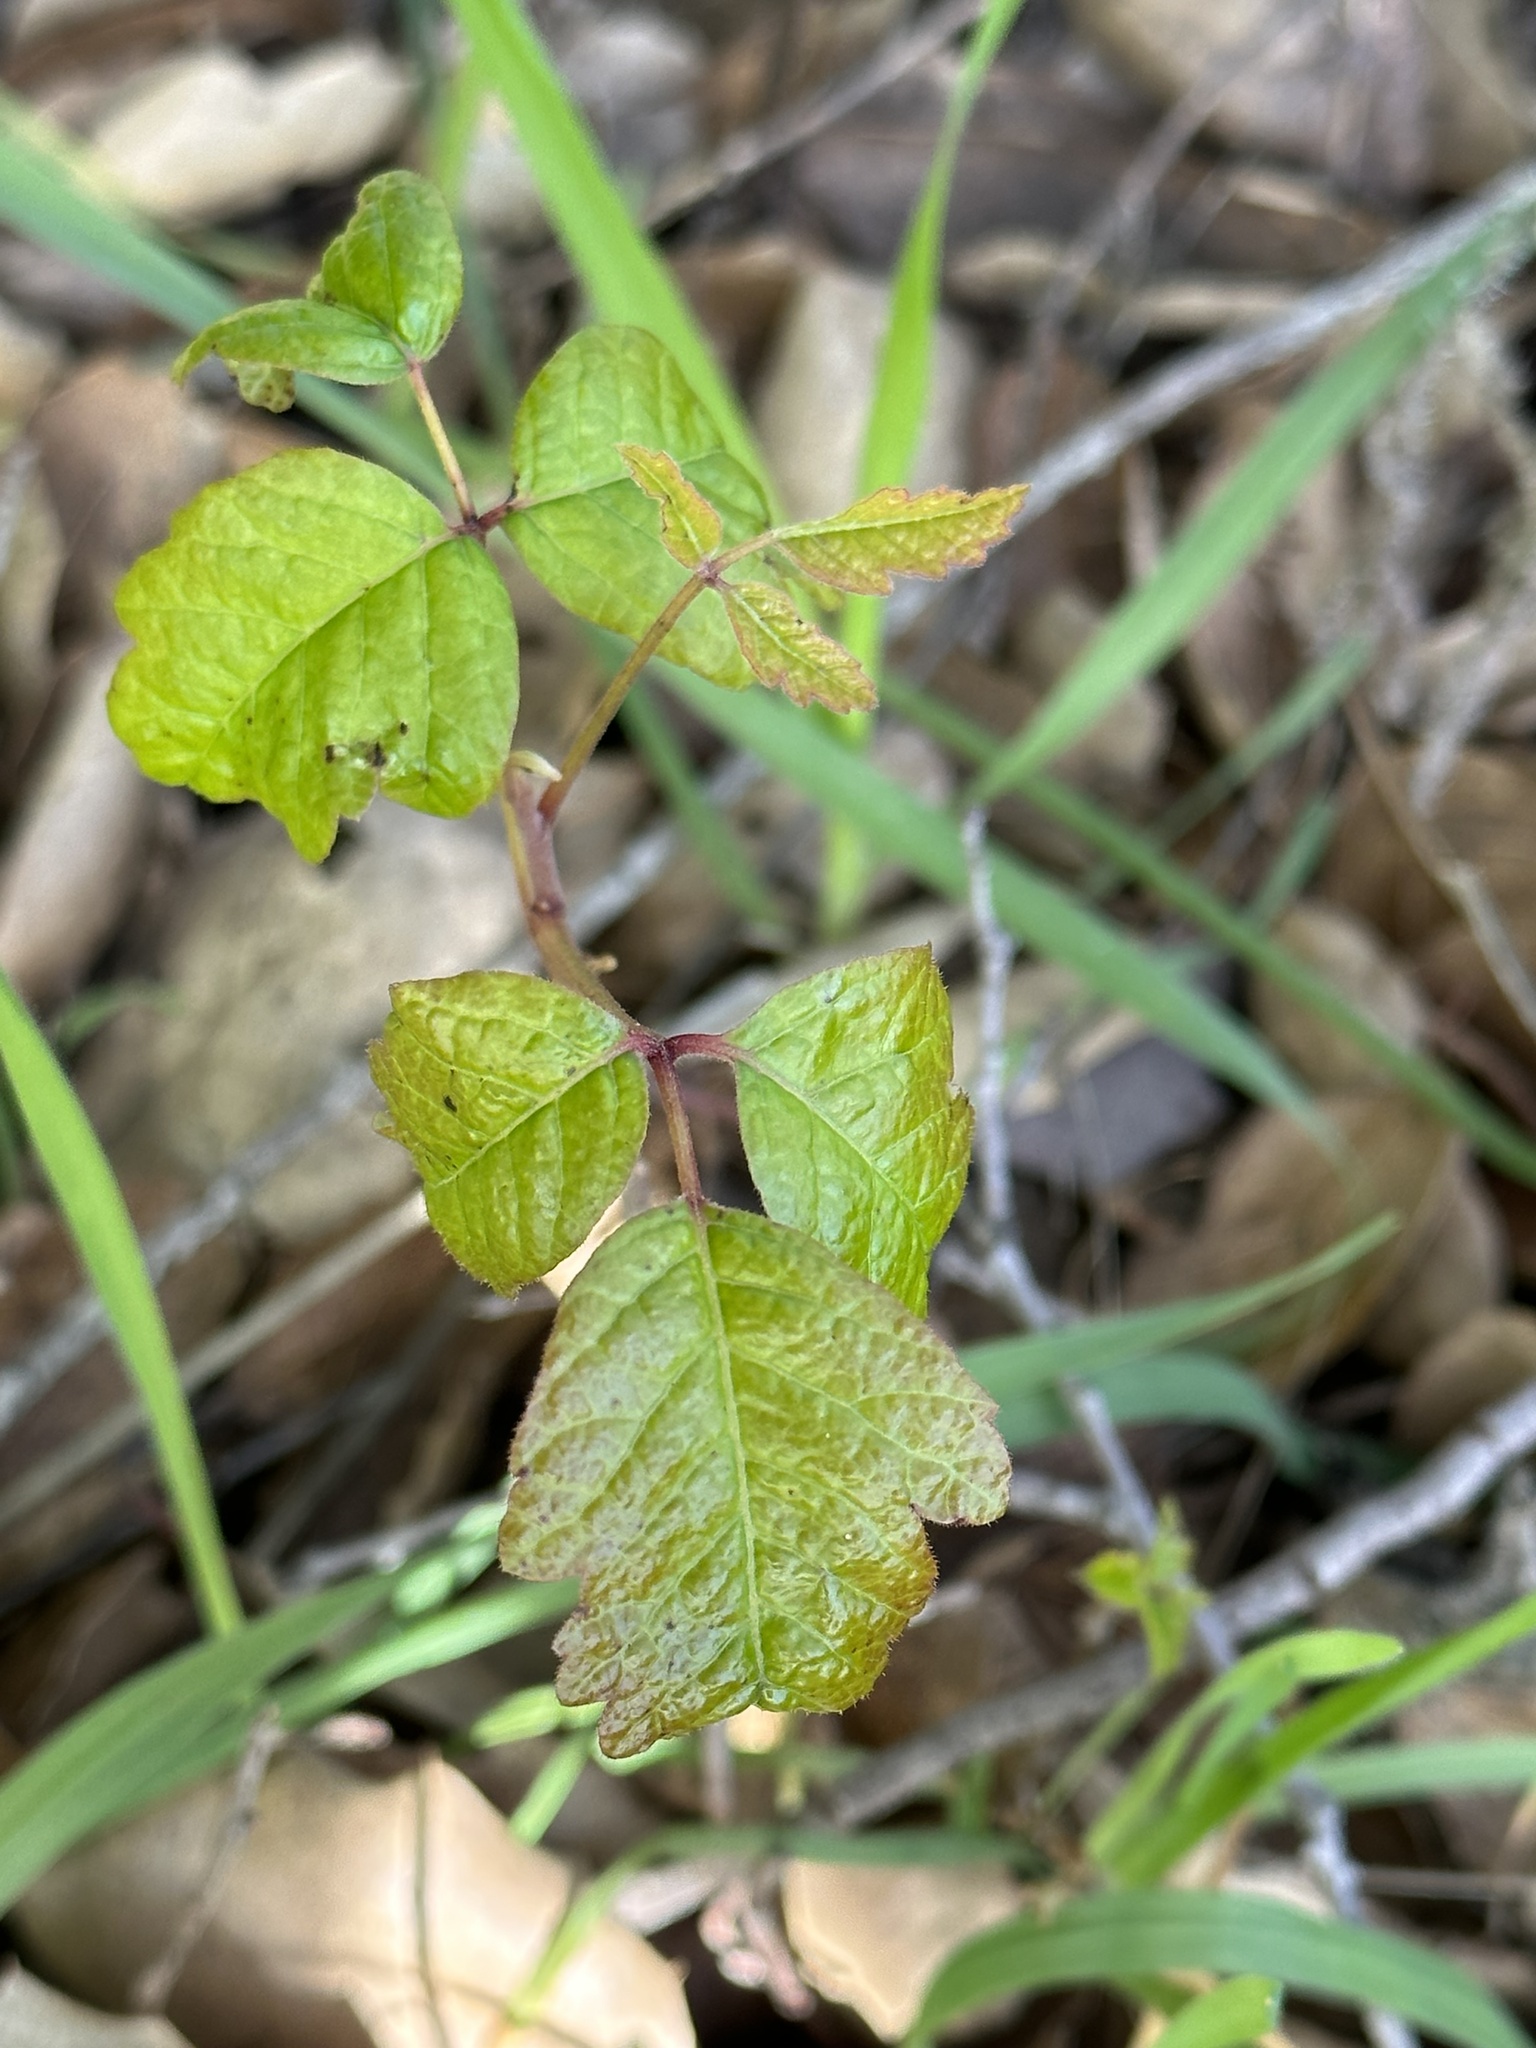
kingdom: Plantae
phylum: Tracheophyta
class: Magnoliopsida
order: Sapindales
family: Anacardiaceae
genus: Toxicodendron
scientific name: Toxicodendron diversilobum
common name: Pacific poison-oak
